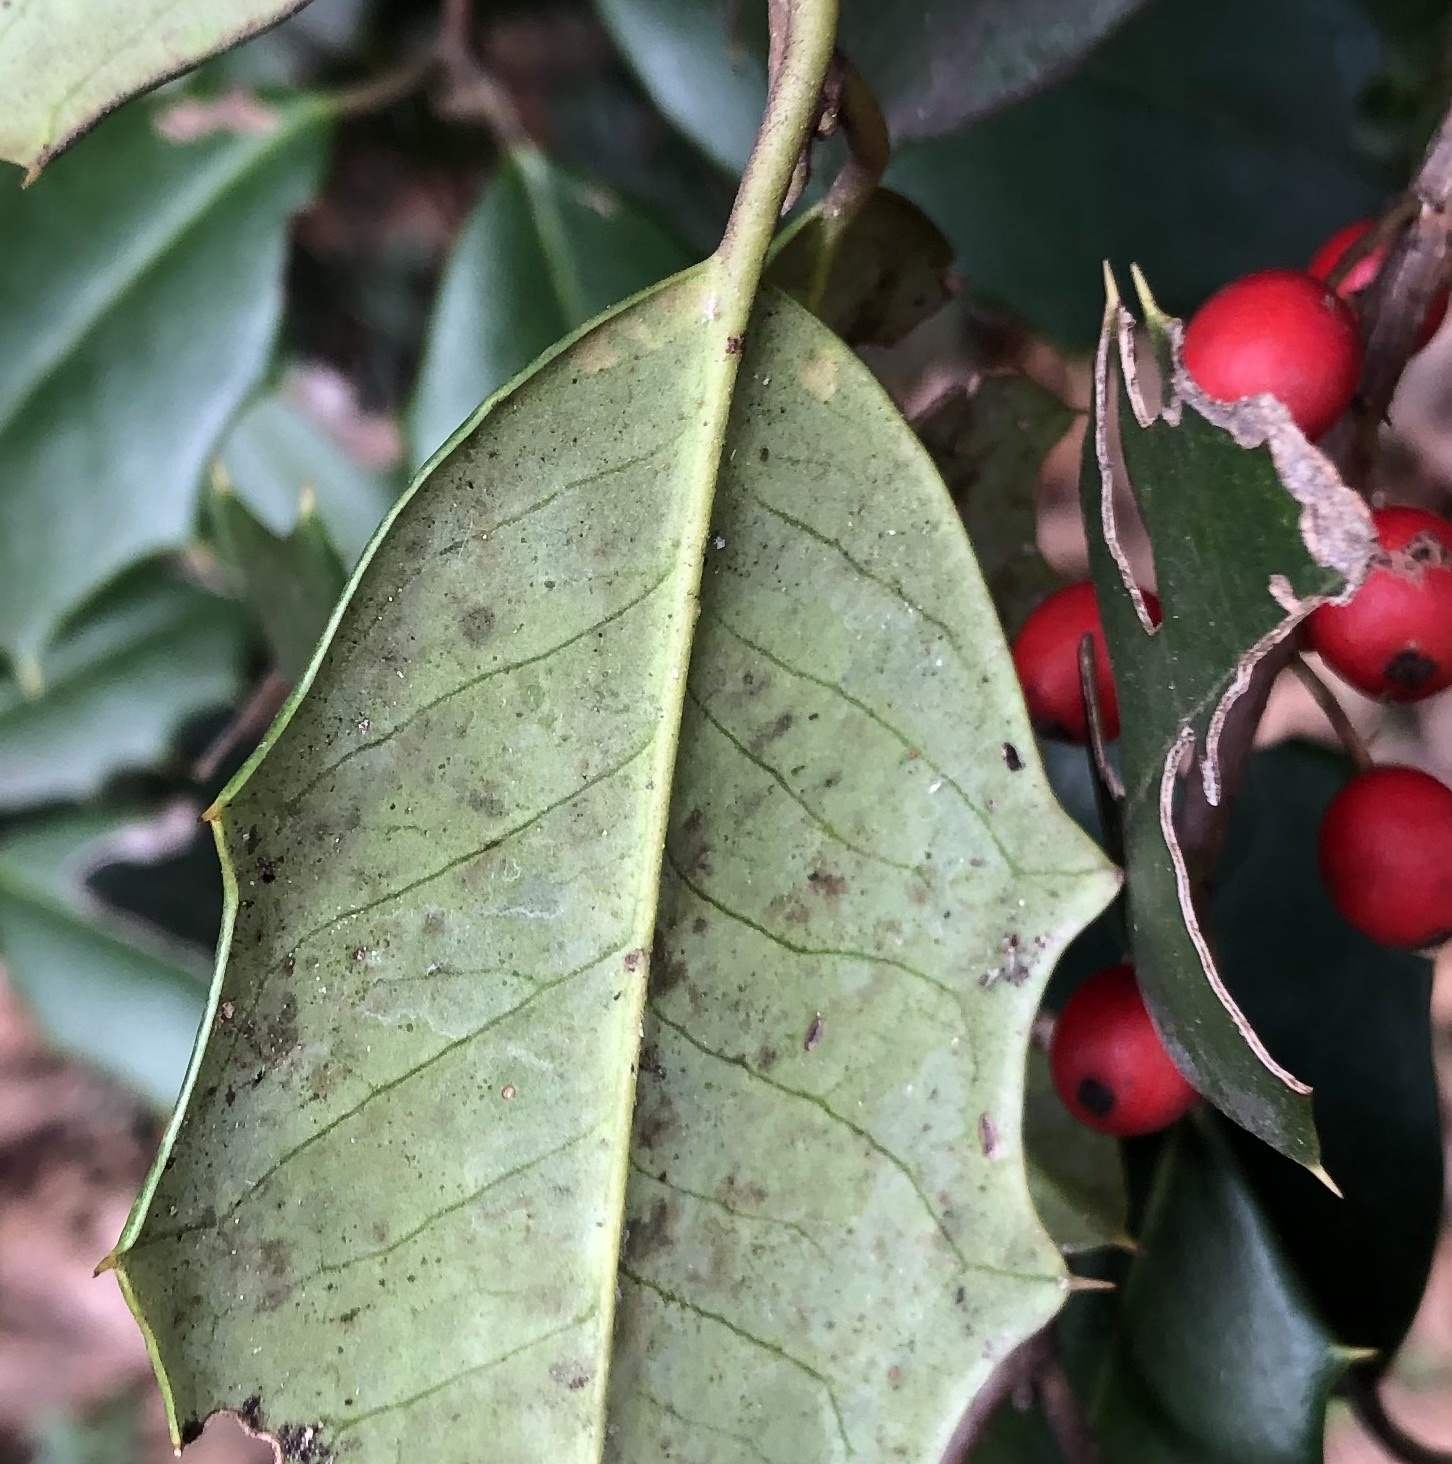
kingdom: Animalia
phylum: Arthropoda
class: Insecta
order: Diptera
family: Agromyzidae
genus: Phytomyza
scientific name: Phytomyza ilicicola
